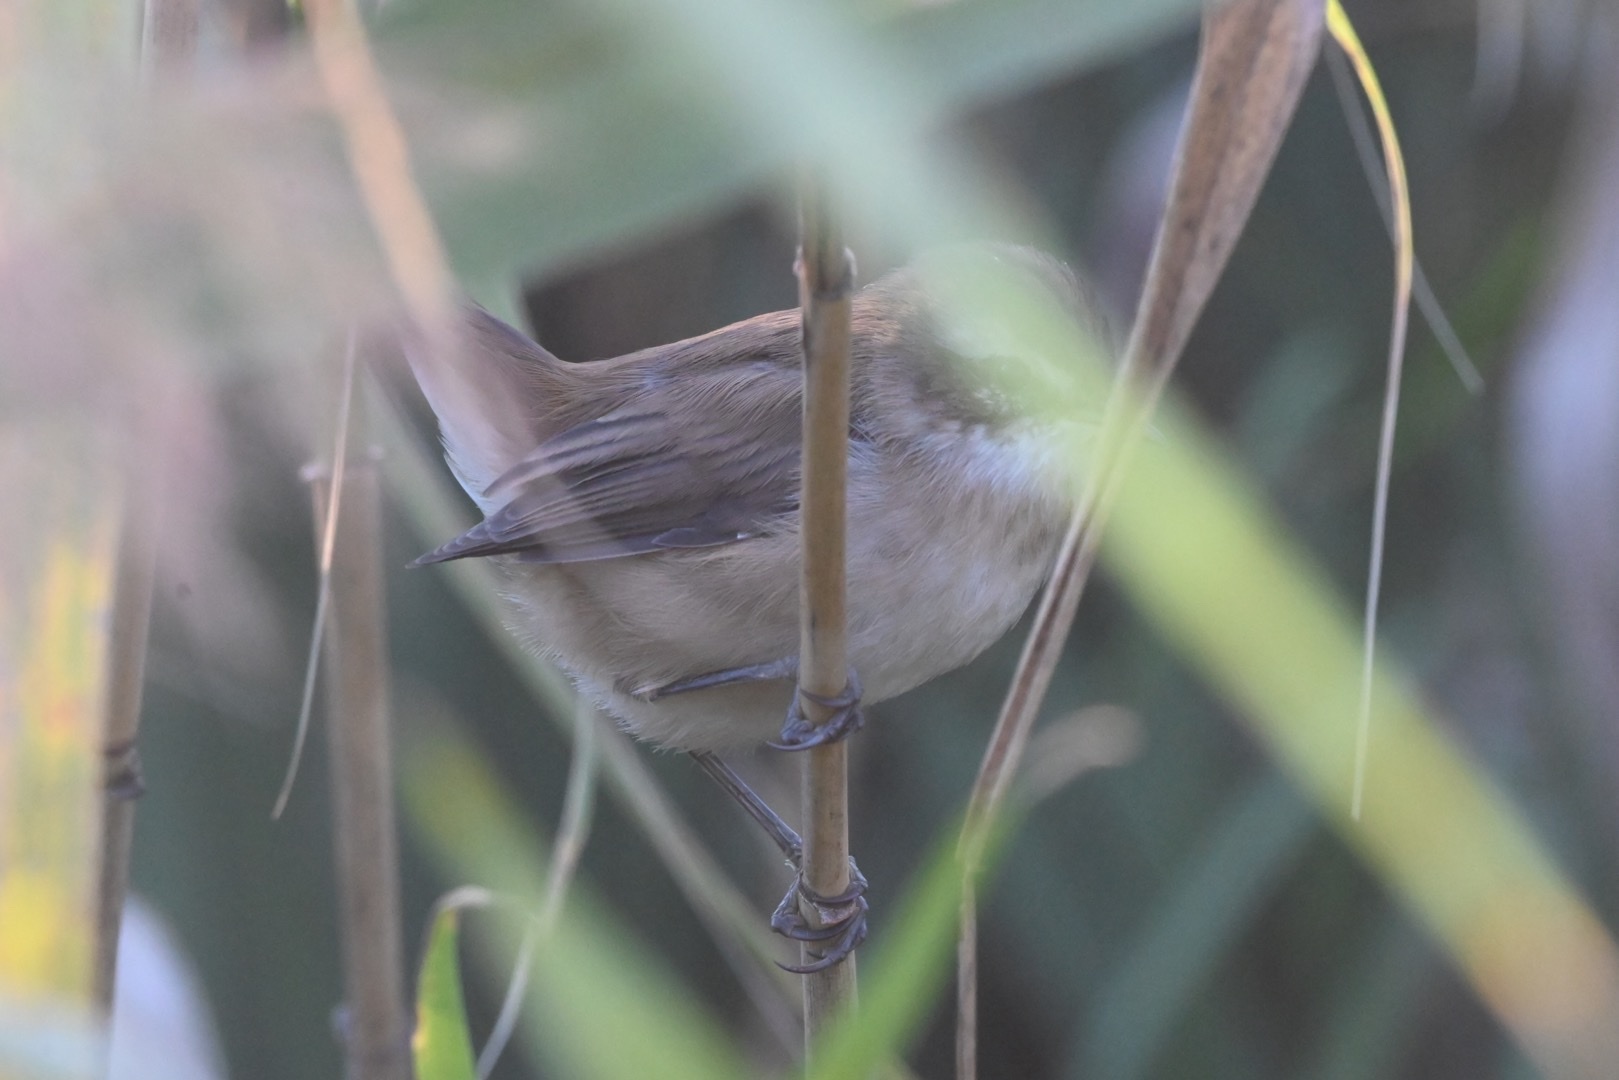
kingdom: Animalia
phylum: Chordata
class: Aves
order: Passeriformes
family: Acrocephalidae
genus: Acrocephalus
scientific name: Acrocephalus melanopogon
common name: Moustached warbler
